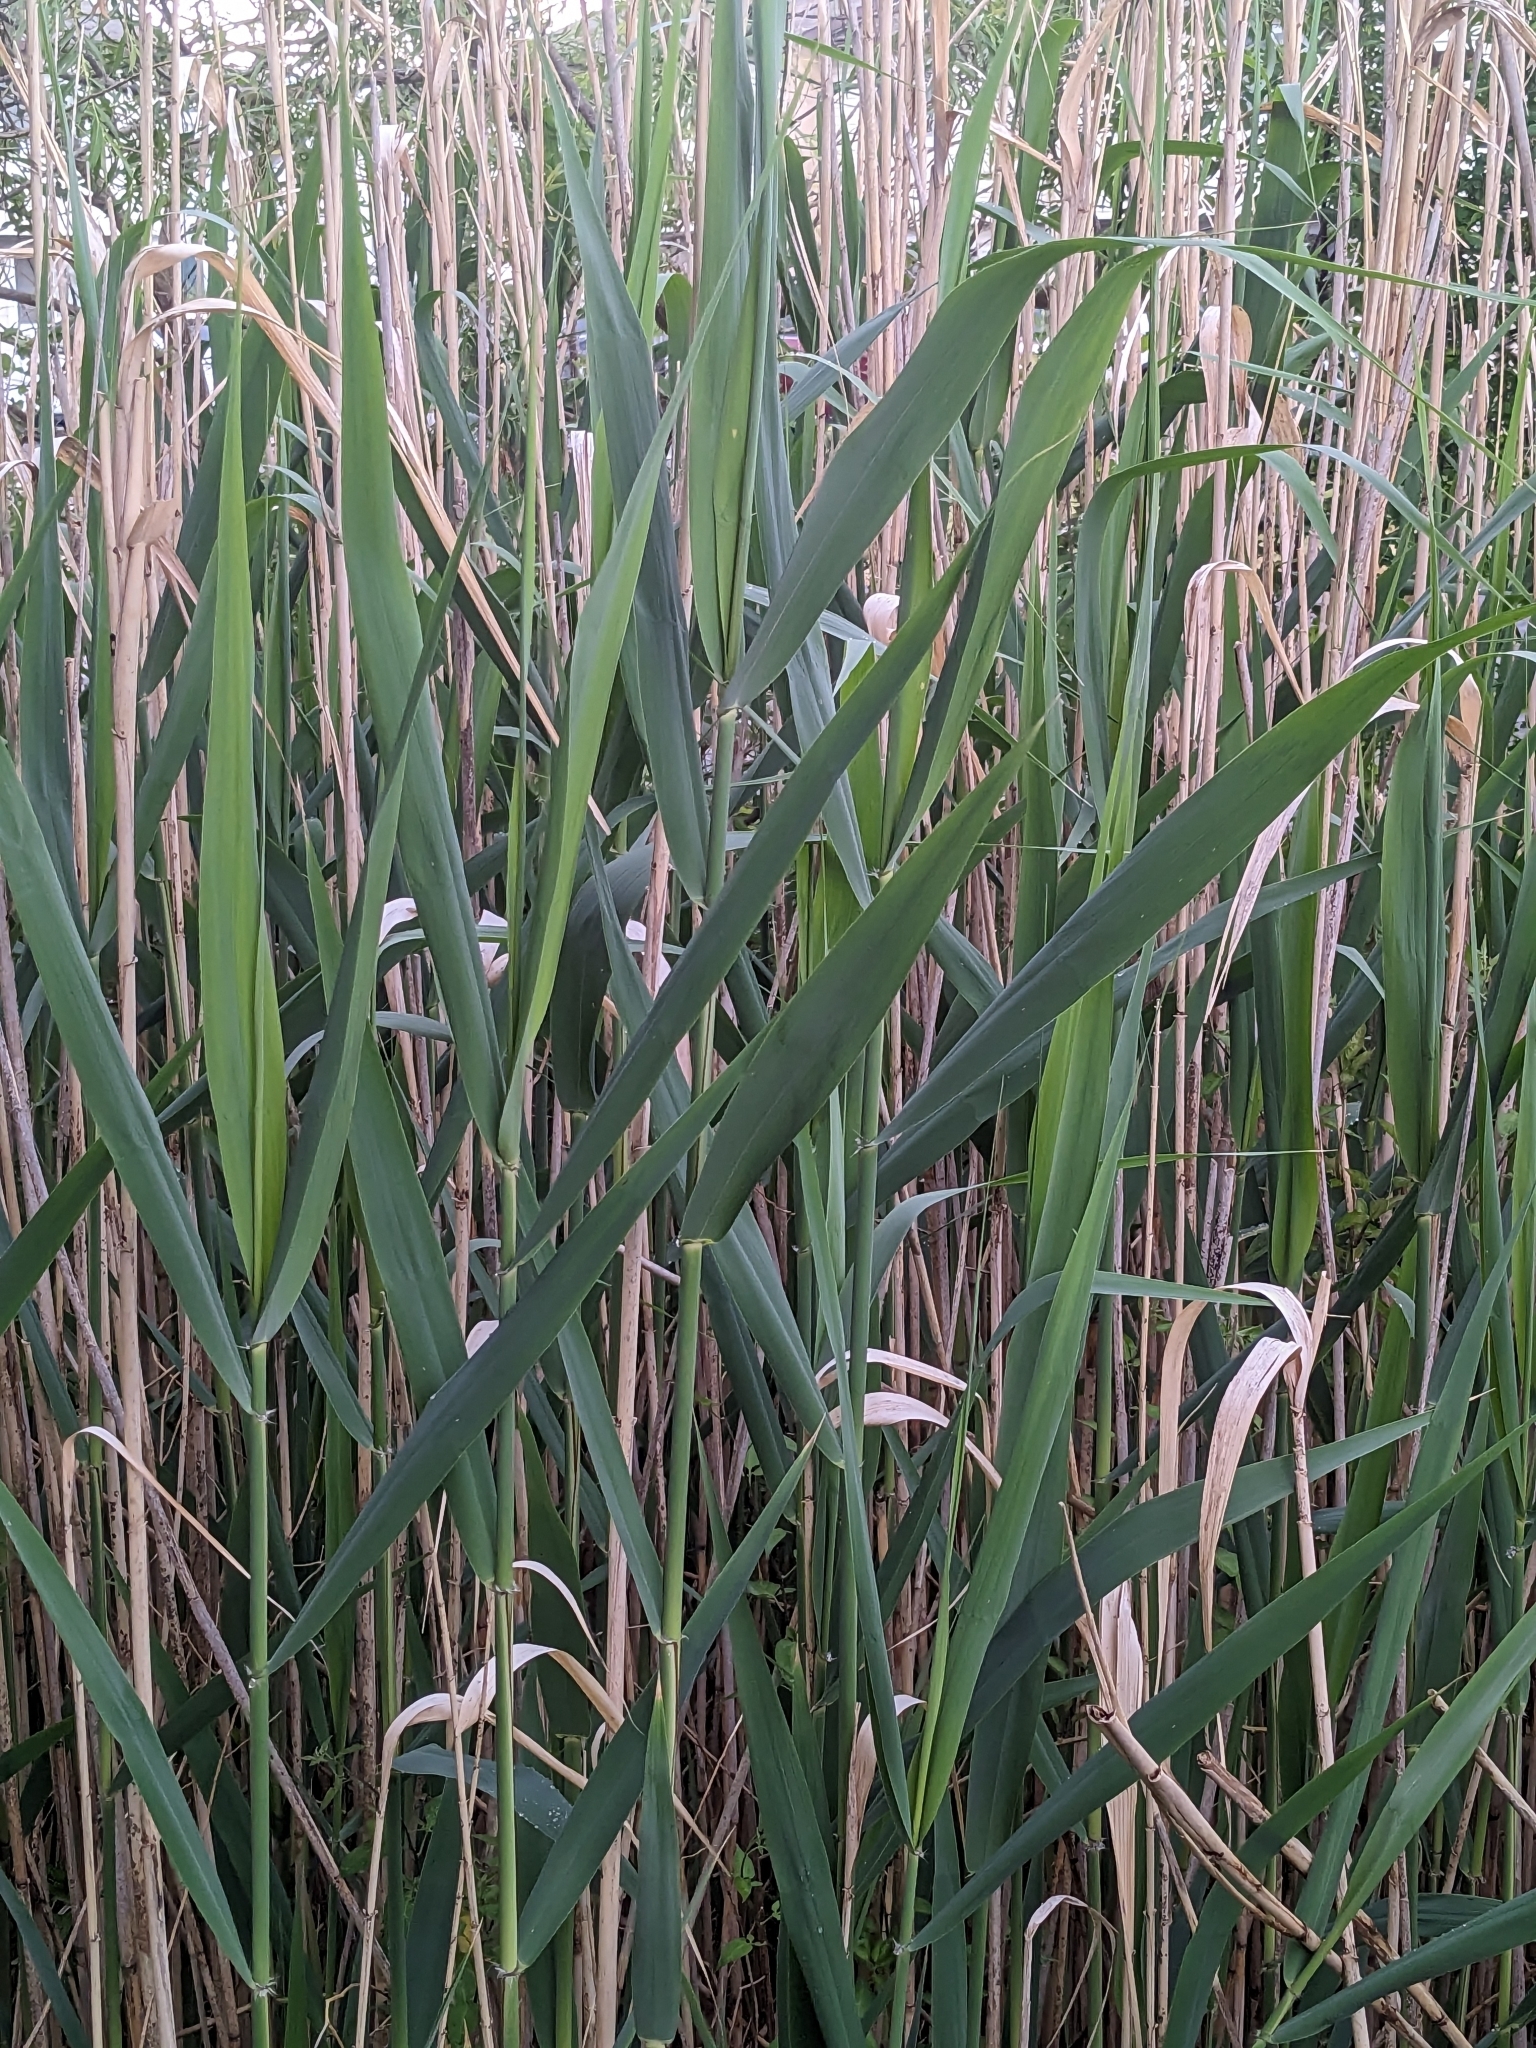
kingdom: Plantae
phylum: Tracheophyta
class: Liliopsida
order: Poales
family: Poaceae
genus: Phragmites
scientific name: Phragmites australis
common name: Common reed
